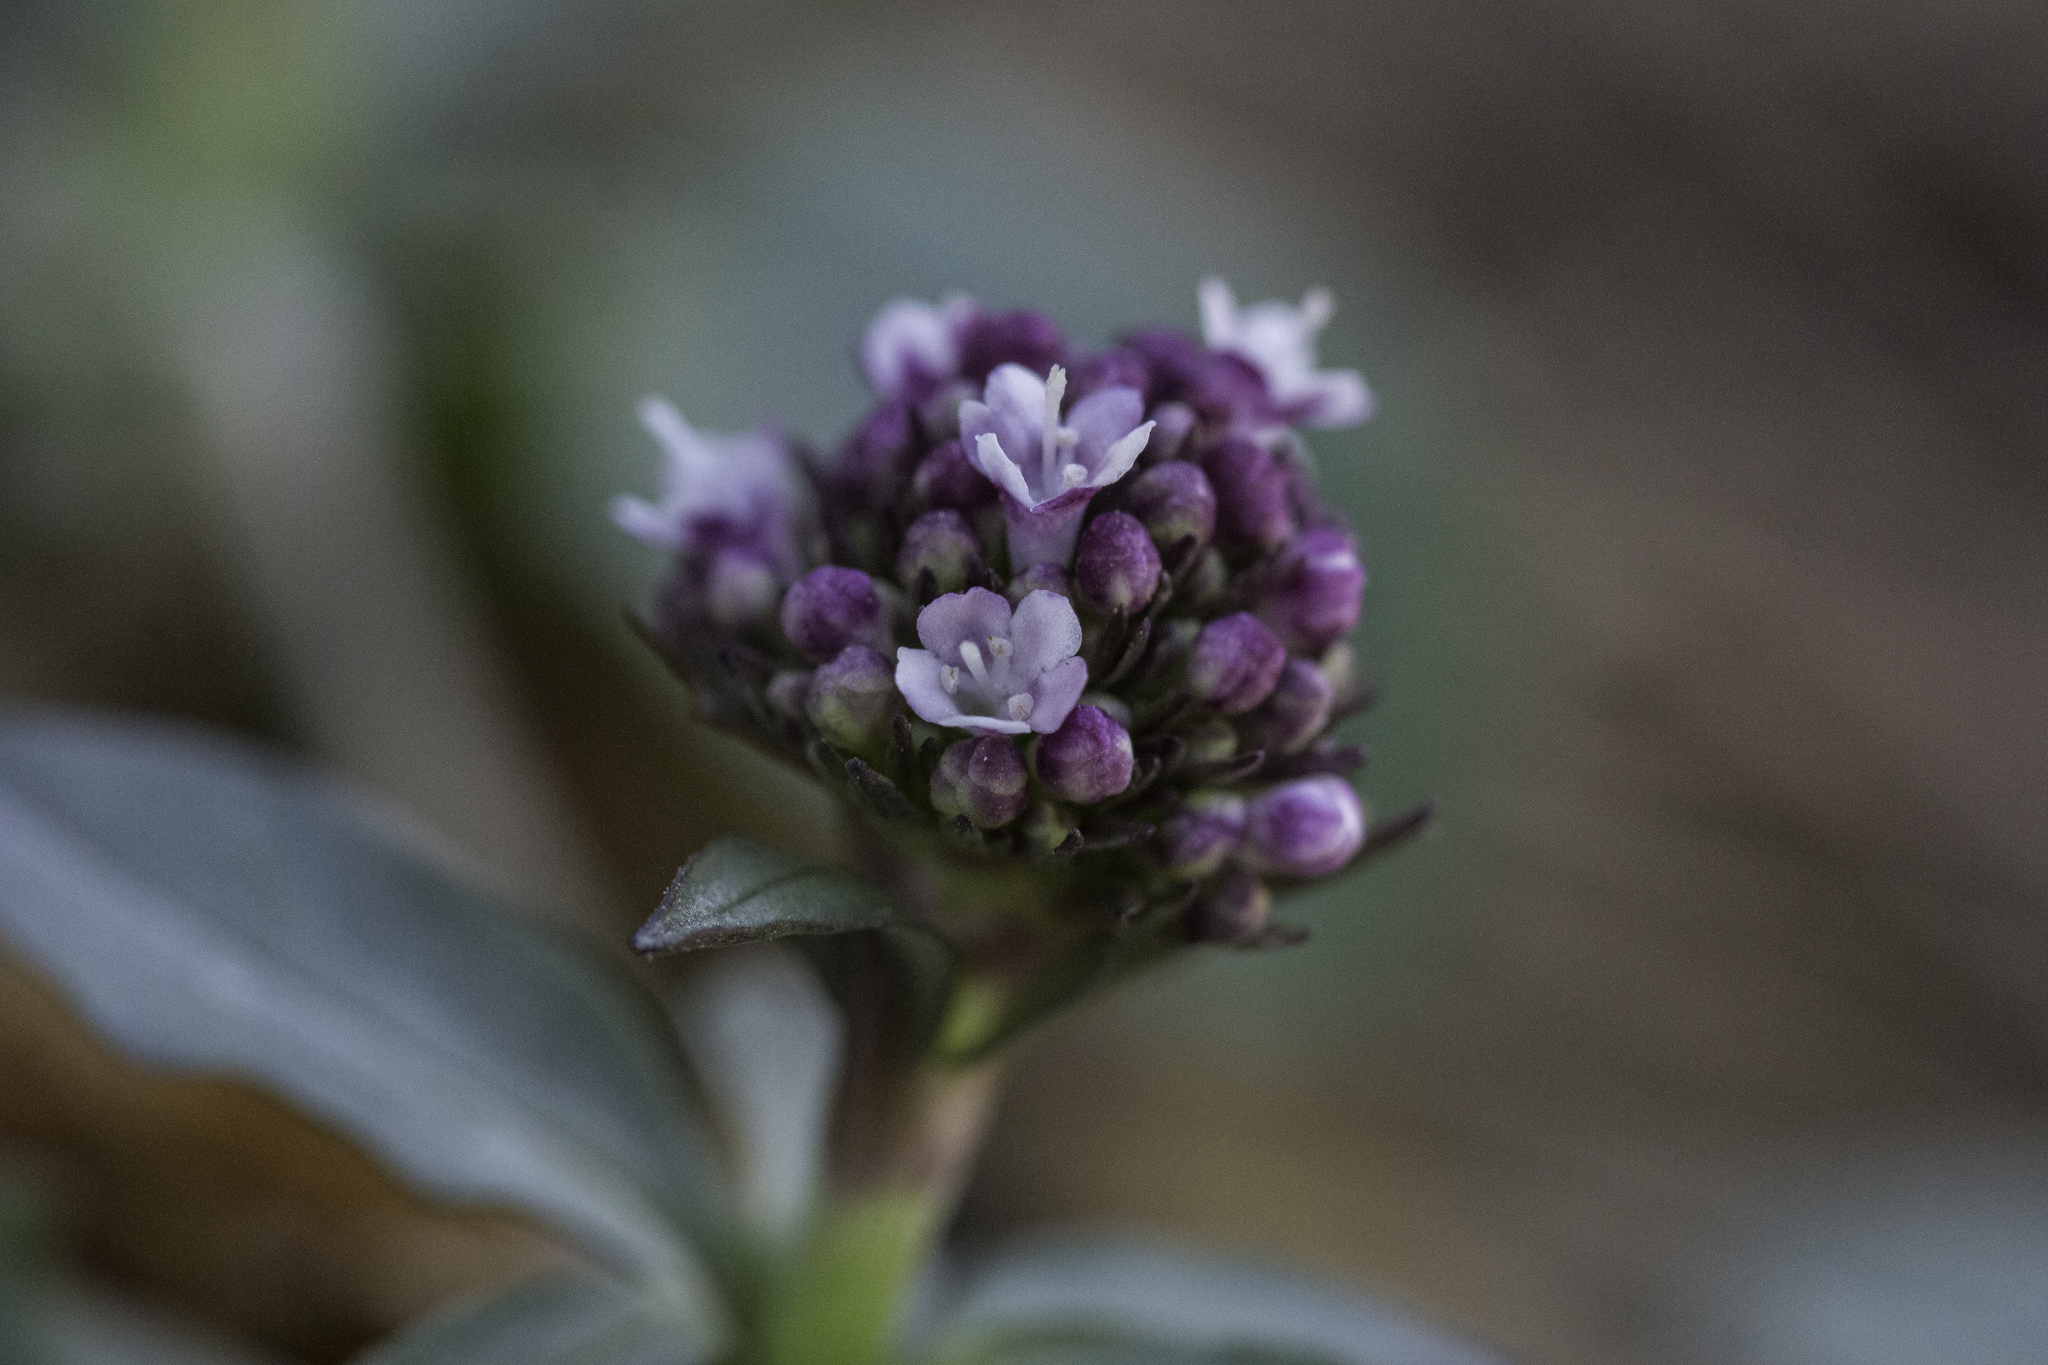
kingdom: Plantae
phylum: Tracheophyta
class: Magnoliopsida
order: Dipsacales
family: Caprifoliaceae
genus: Valeriana
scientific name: Valeriana arizonica
